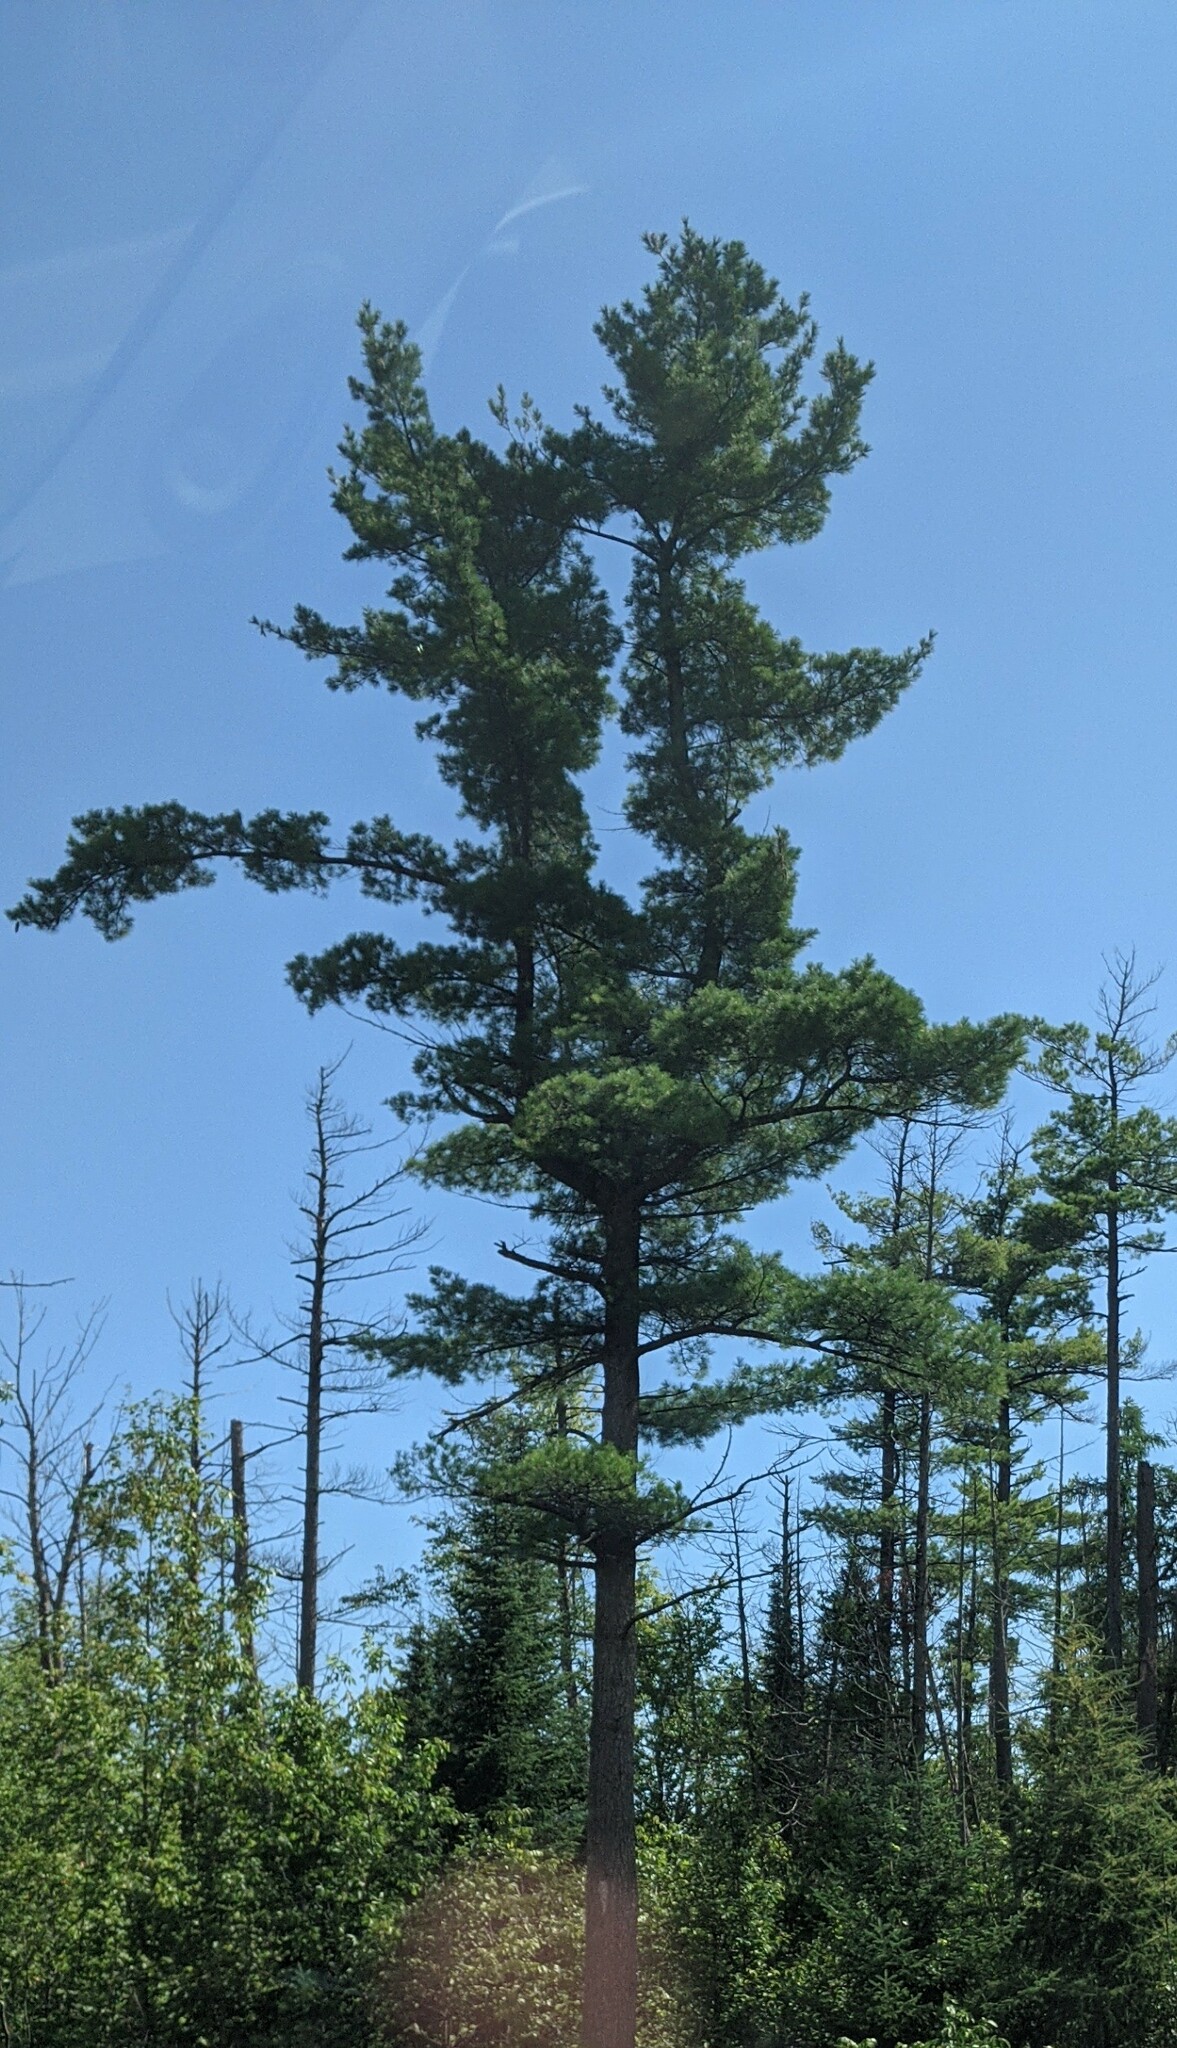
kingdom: Plantae
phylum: Tracheophyta
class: Pinopsida
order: Pinales
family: Pinaceae
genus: Pinus
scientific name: Pinus strobus
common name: Weymouth pine
